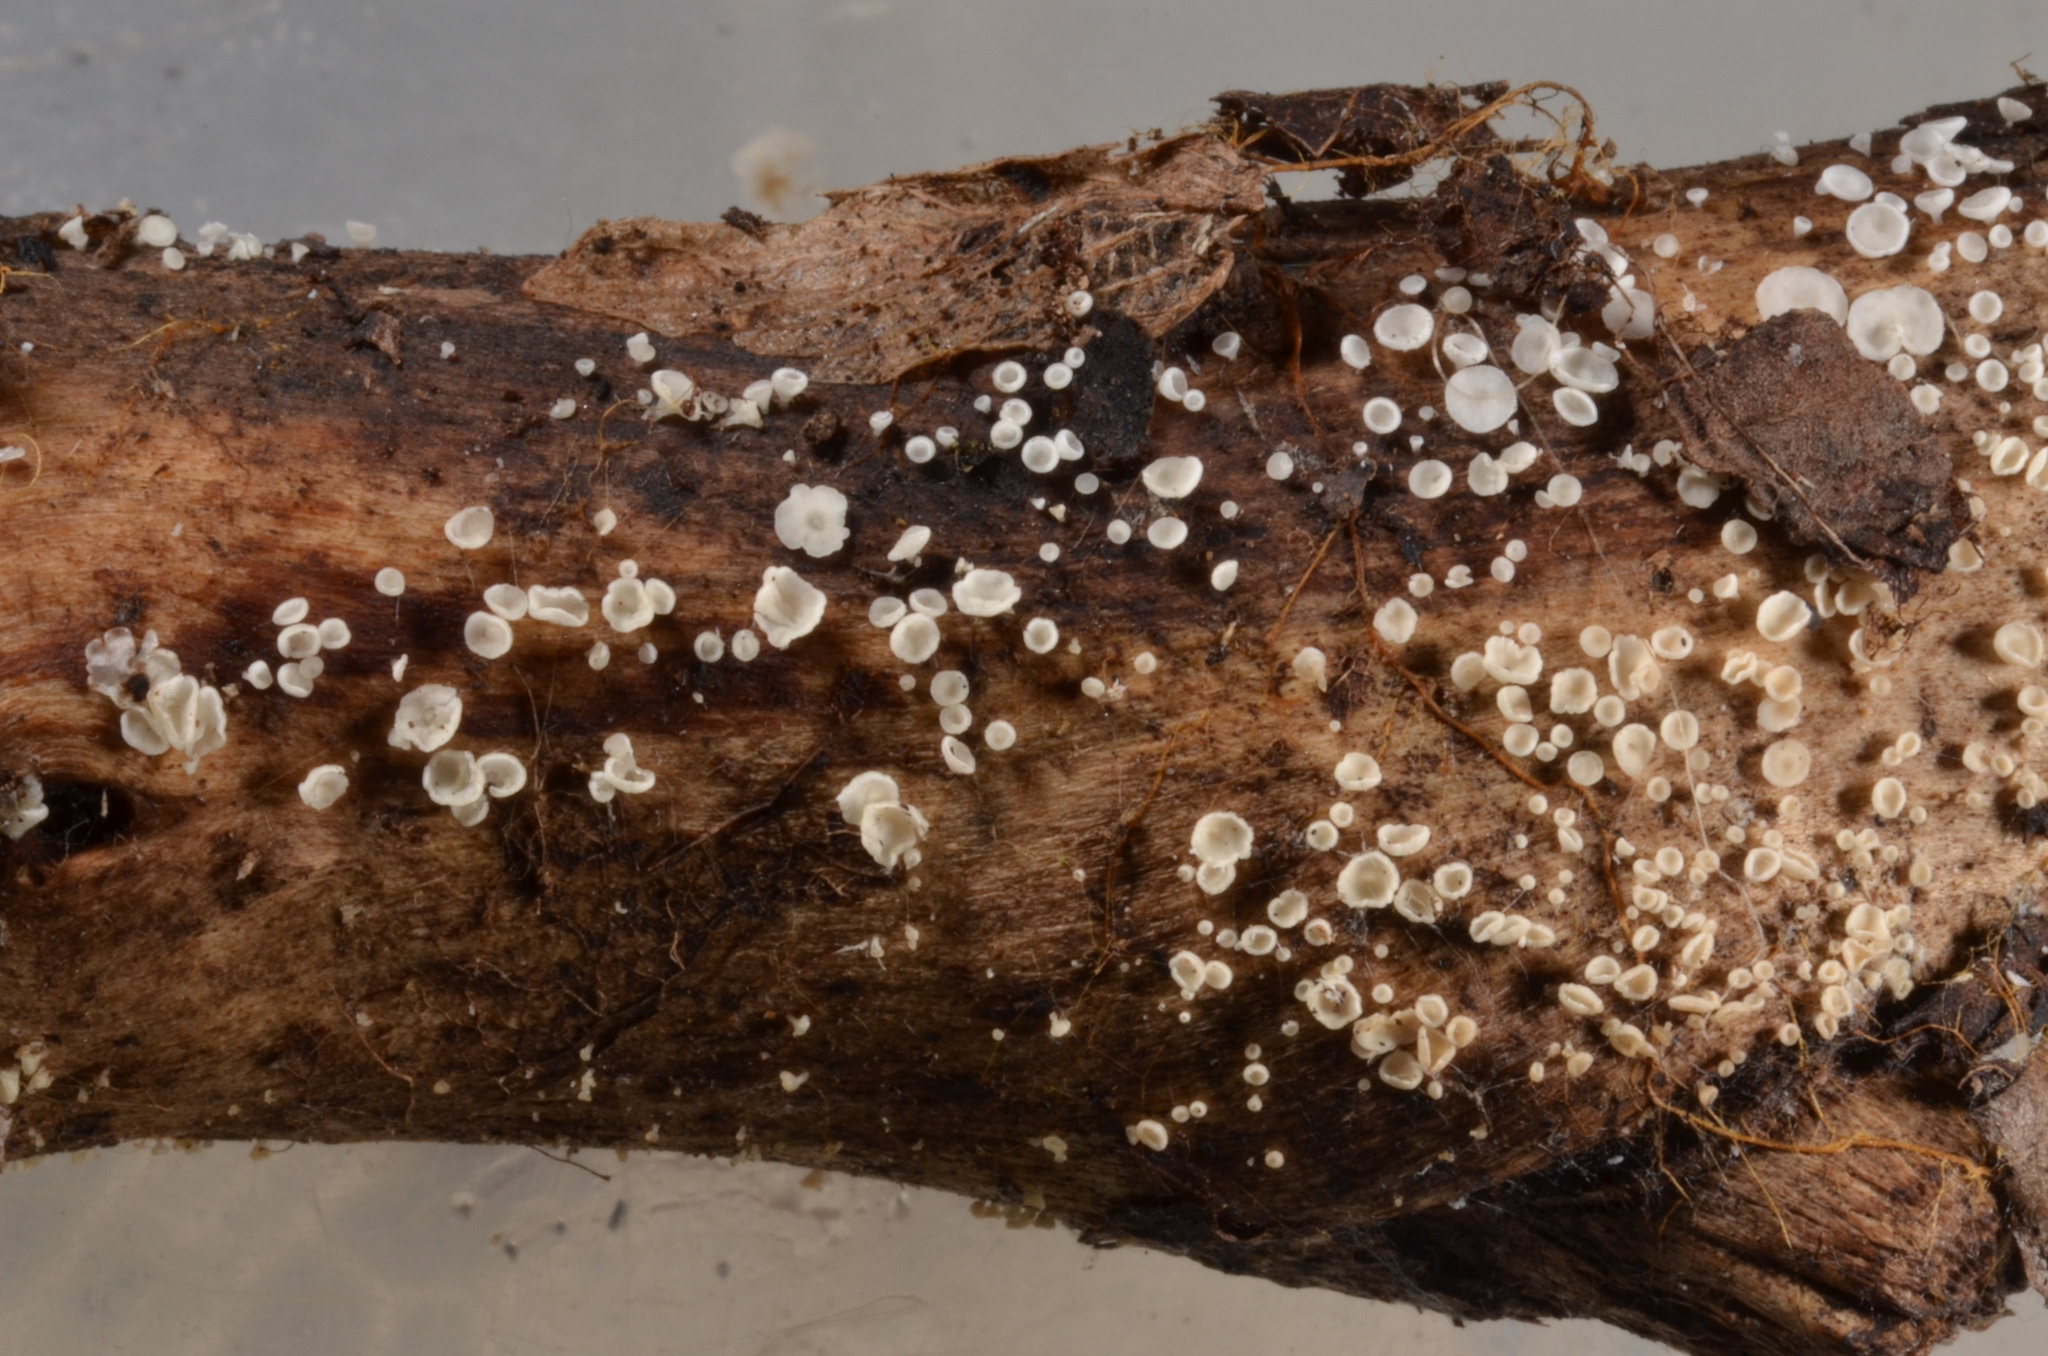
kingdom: Fungi
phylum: Ascomycota
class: Leotiomycetes
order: Helotiales
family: Pezizellaceae
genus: Calycina
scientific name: Calycina vulgaris
